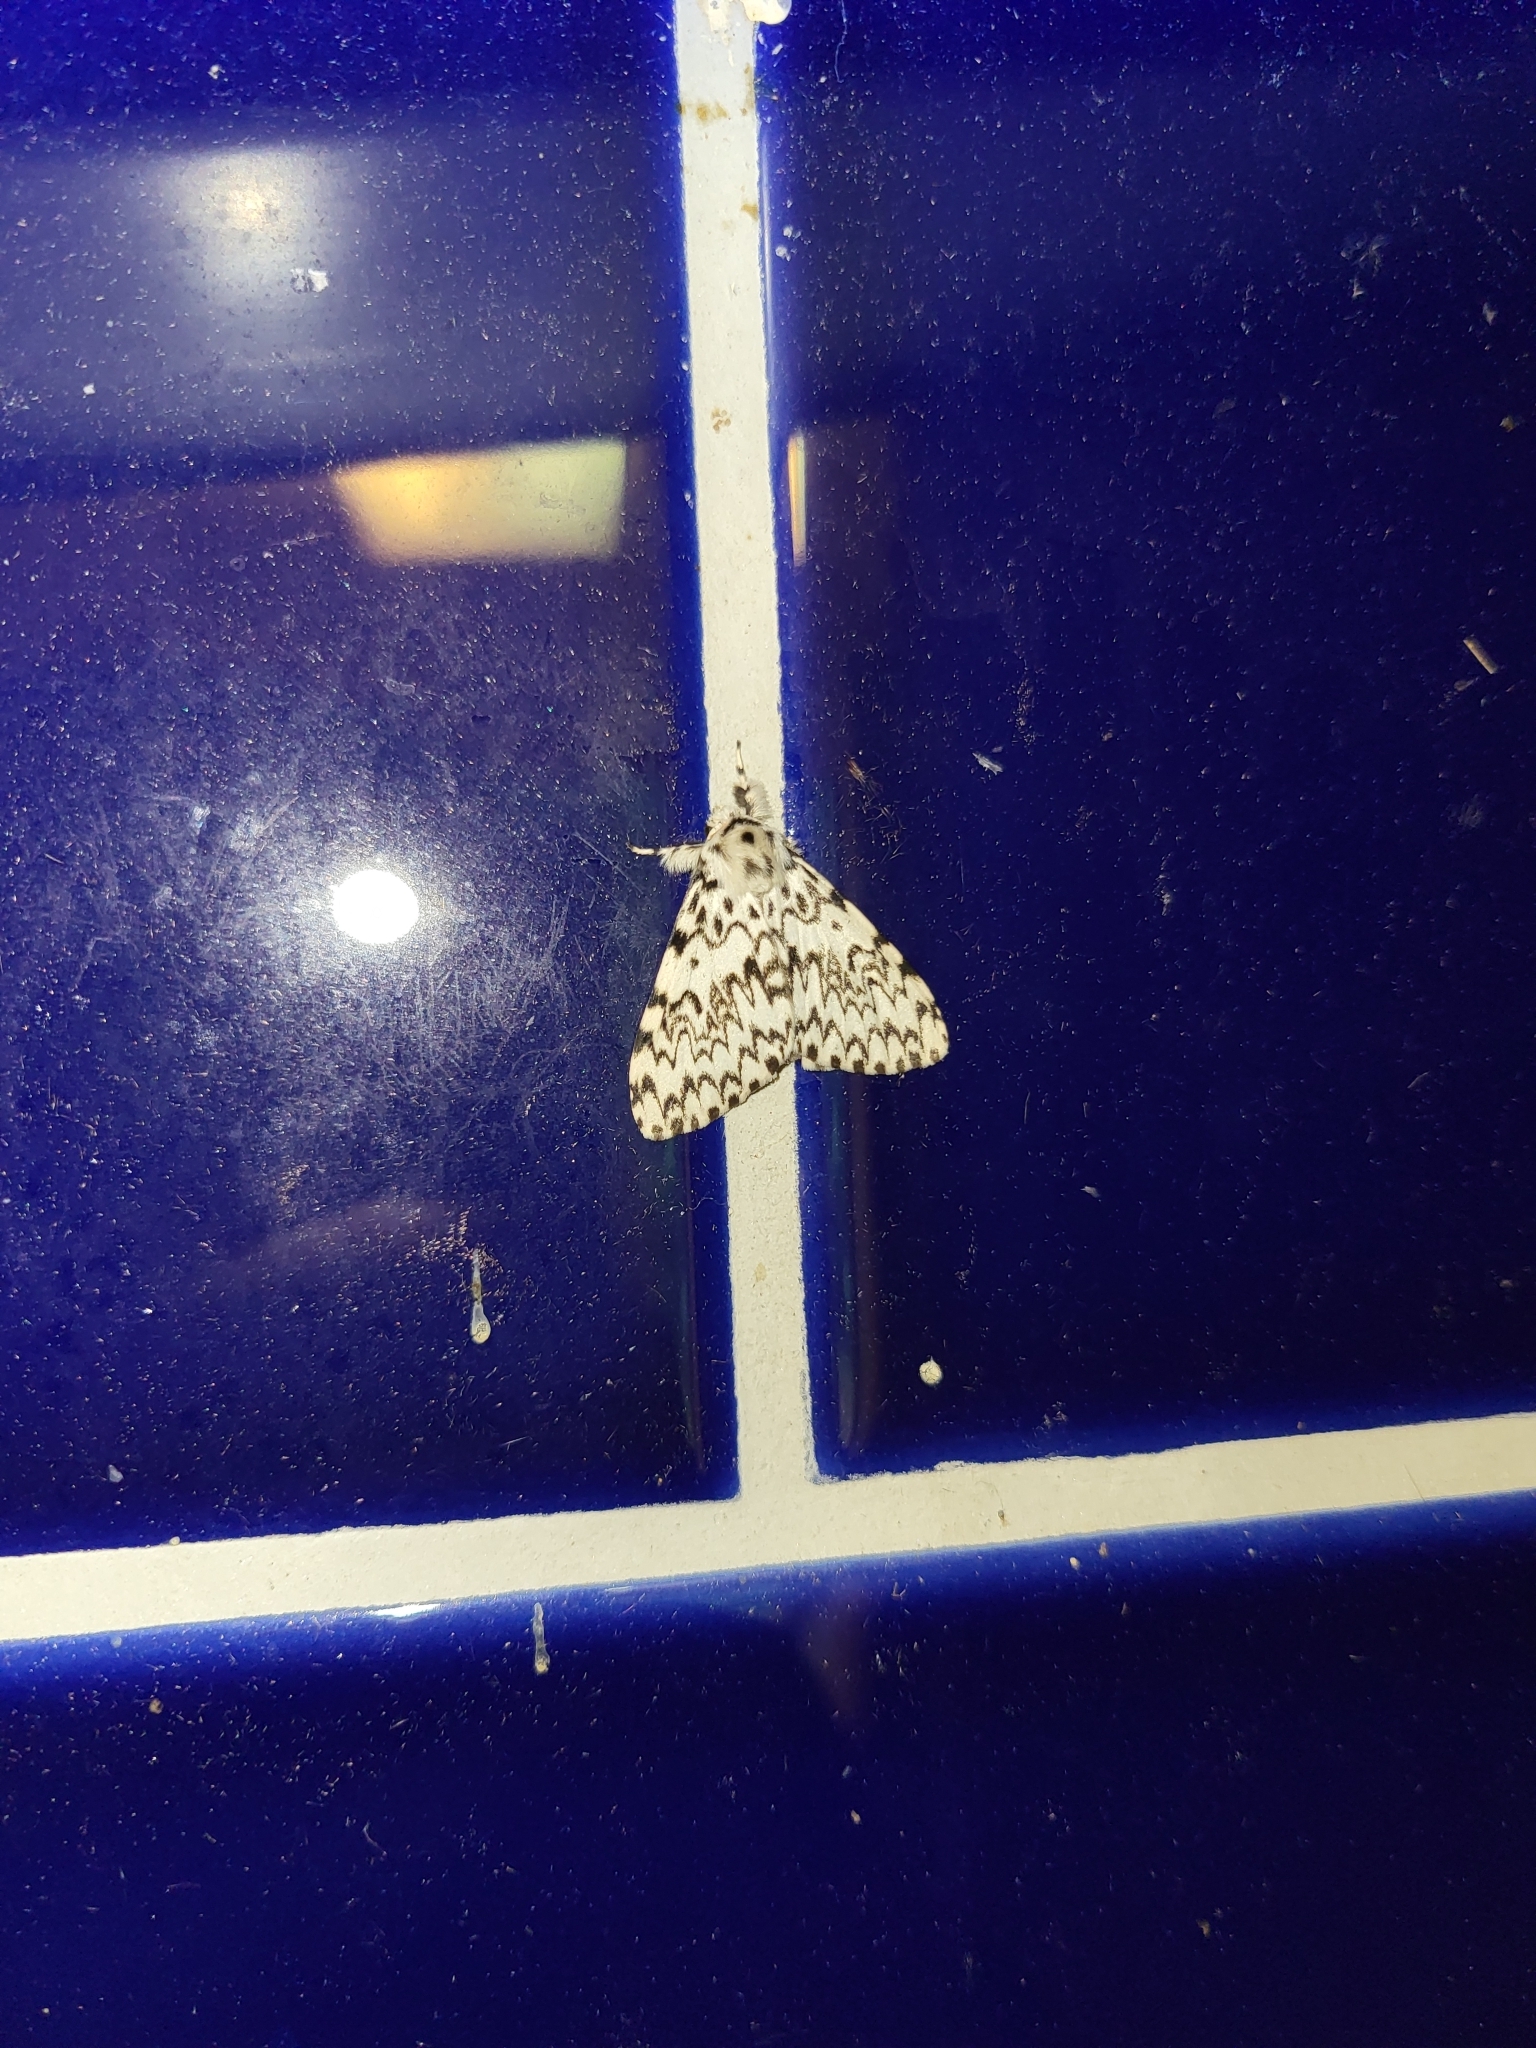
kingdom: Animalia
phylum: Arthropoda
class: Insecta
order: Lepidoptera
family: Erebidae
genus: Lymantria
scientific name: Lymantria monacha
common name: Black arches
